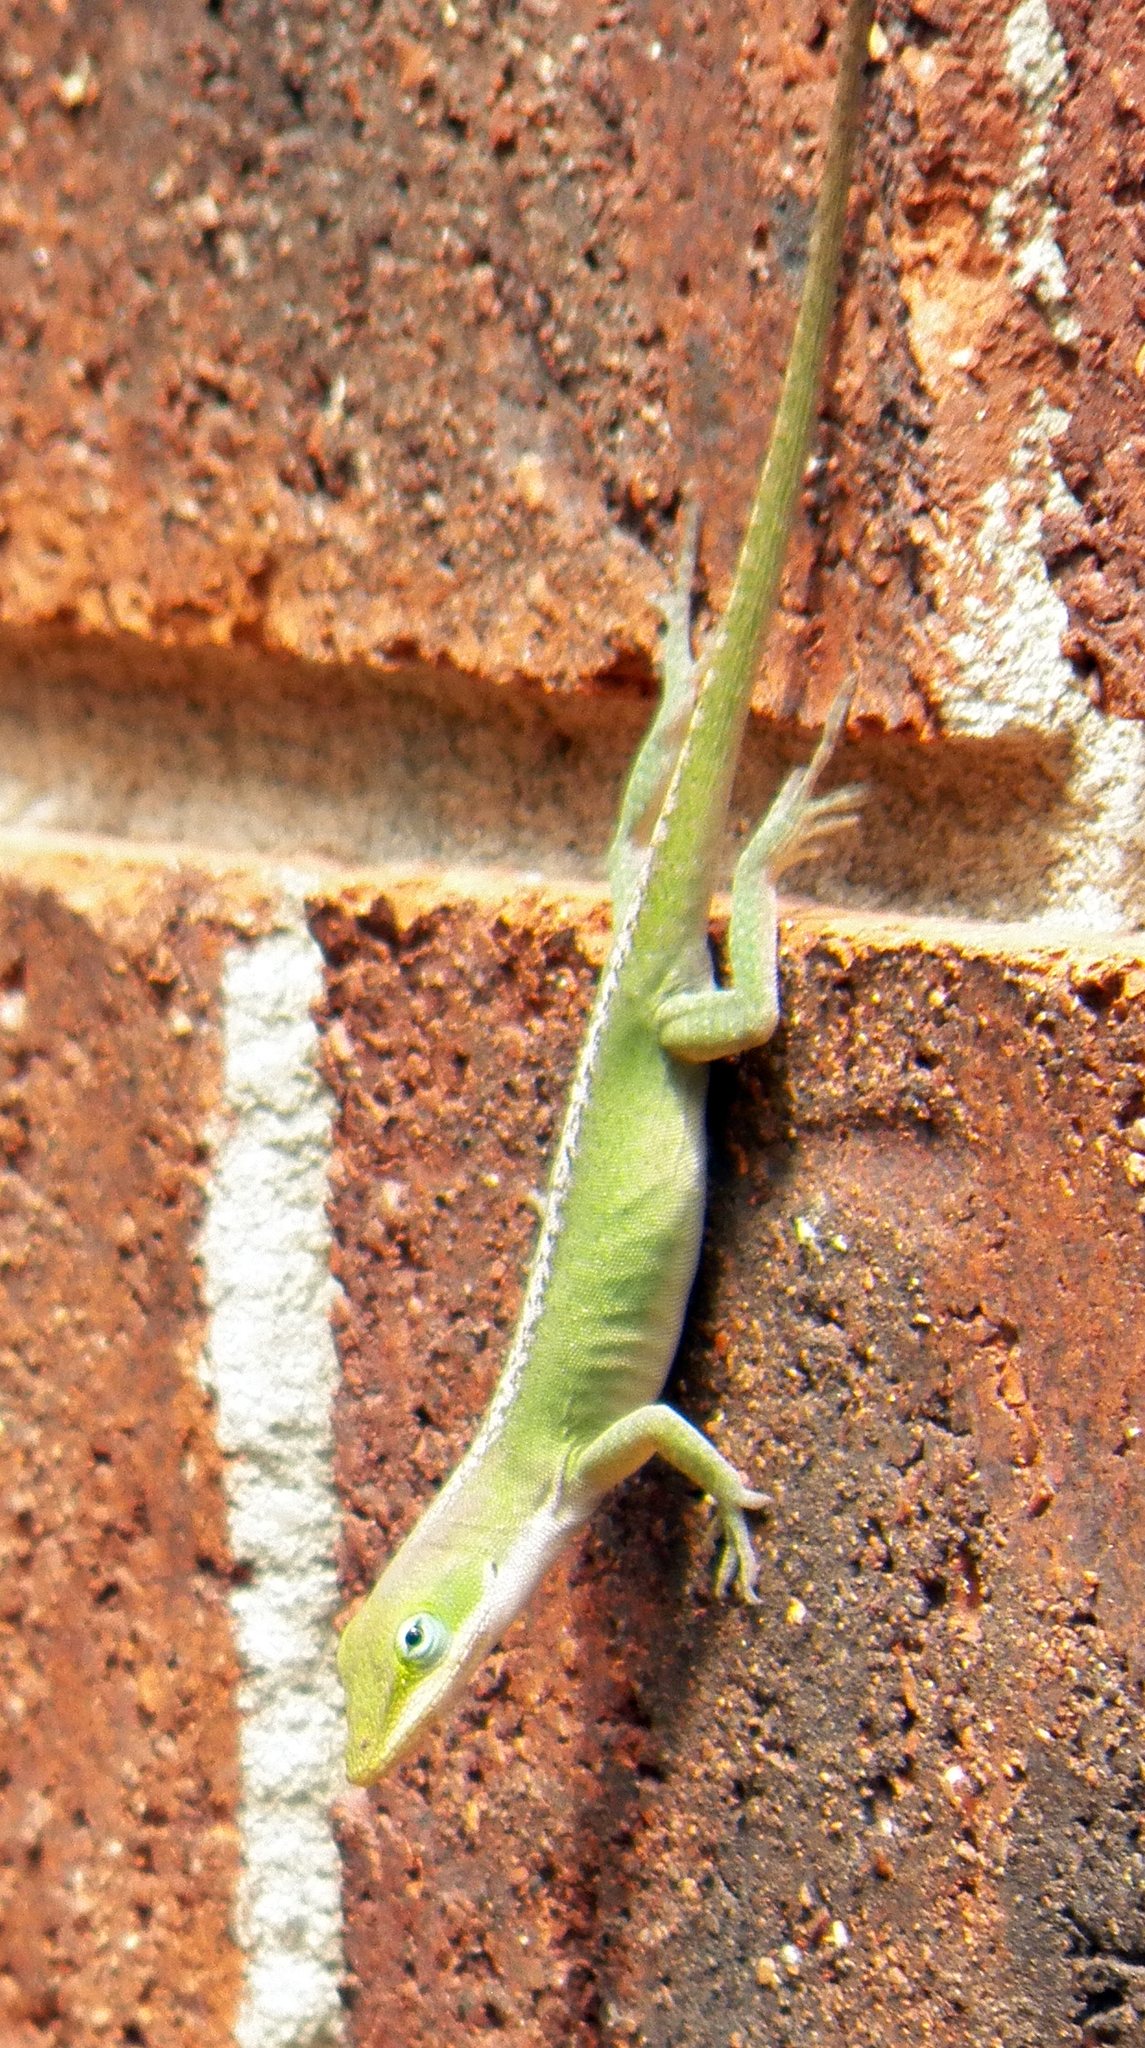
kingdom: Animalia
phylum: Chordata
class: Squamata
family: Dactyloidae
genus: Anolis
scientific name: Anolis carolinensis
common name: Green anole
